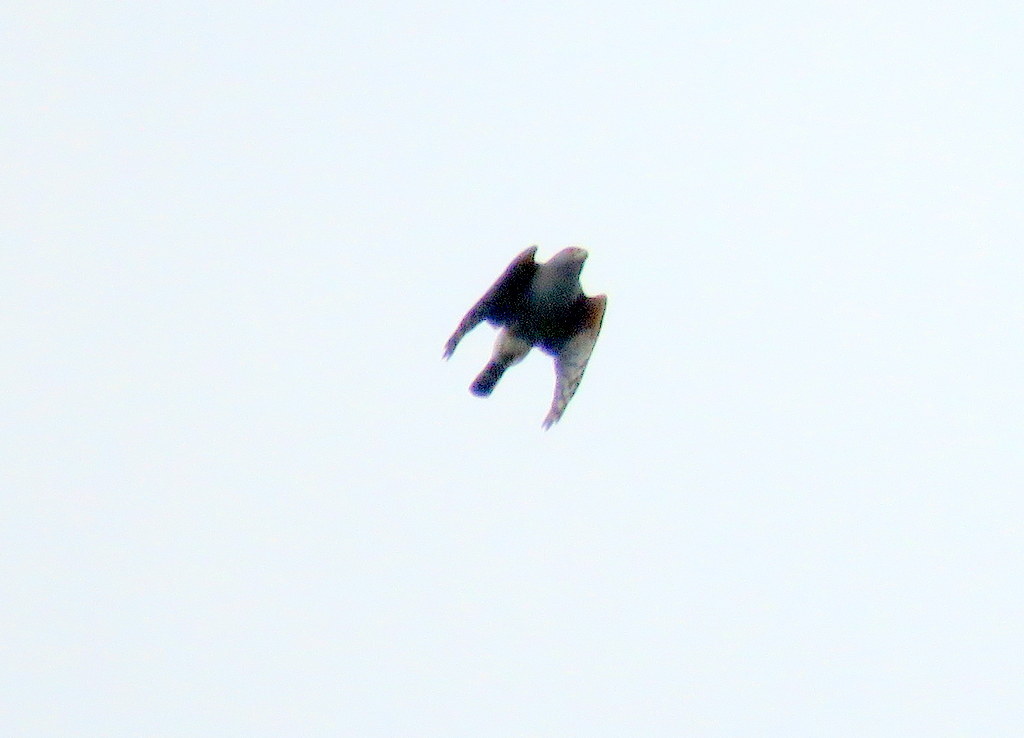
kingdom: Animalia
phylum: Chordata
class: Aves
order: Accipitriformes
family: Accipitridae
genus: Harpagus
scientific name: Harpagus diodon
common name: Rufous-thighed kite
